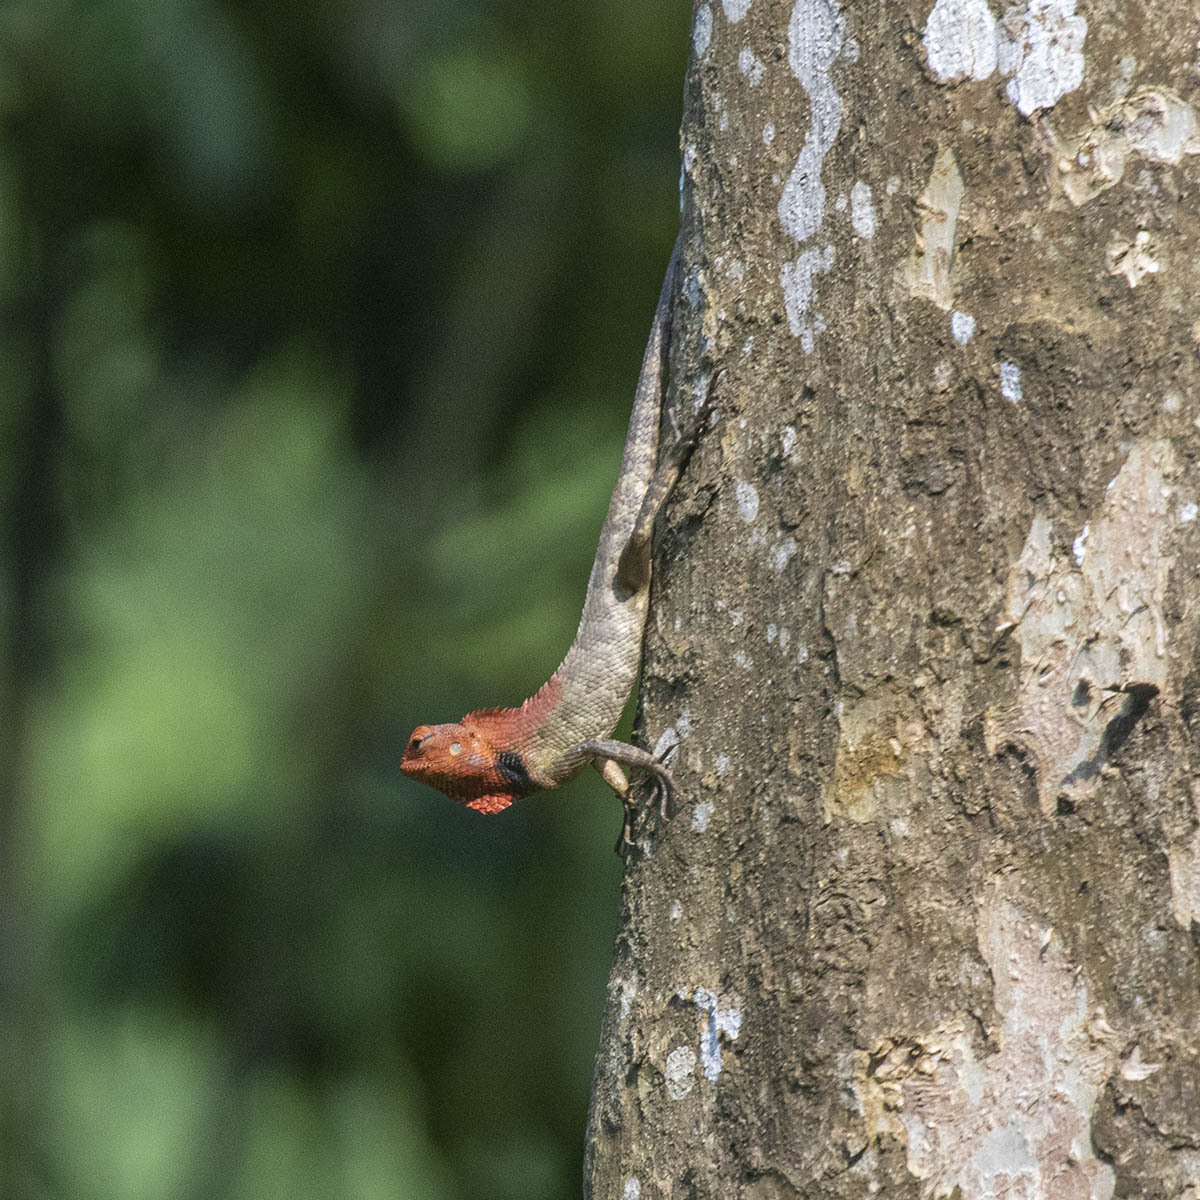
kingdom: Animalia
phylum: Chordata
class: Squamata
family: Agamidae
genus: Calotes
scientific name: Calotes versicolor
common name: Oriental garden lizard
